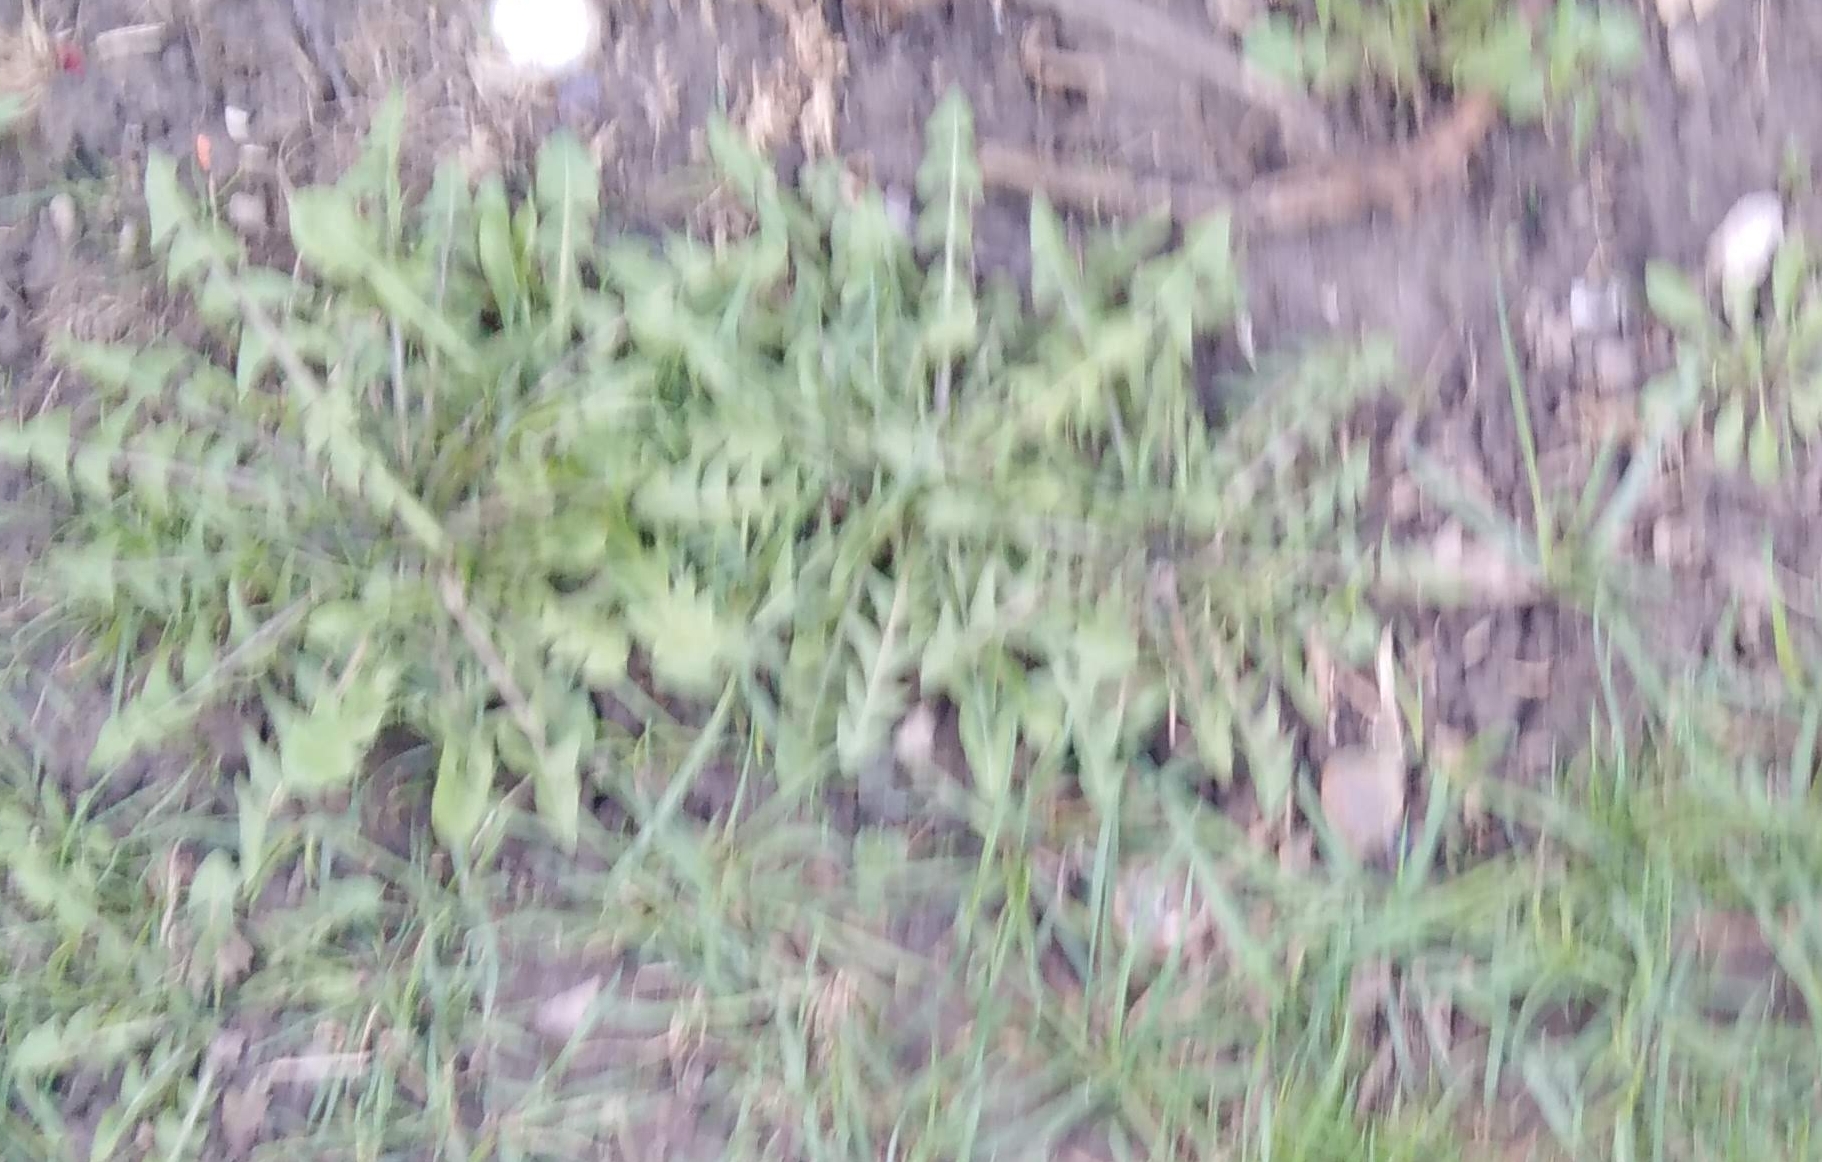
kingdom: Plantae
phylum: Tracheophyta
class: Magnoliopsida
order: Asterales
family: Asteraceae
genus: Taraxacum
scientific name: Taraxacum officinale
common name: Common dandelion
